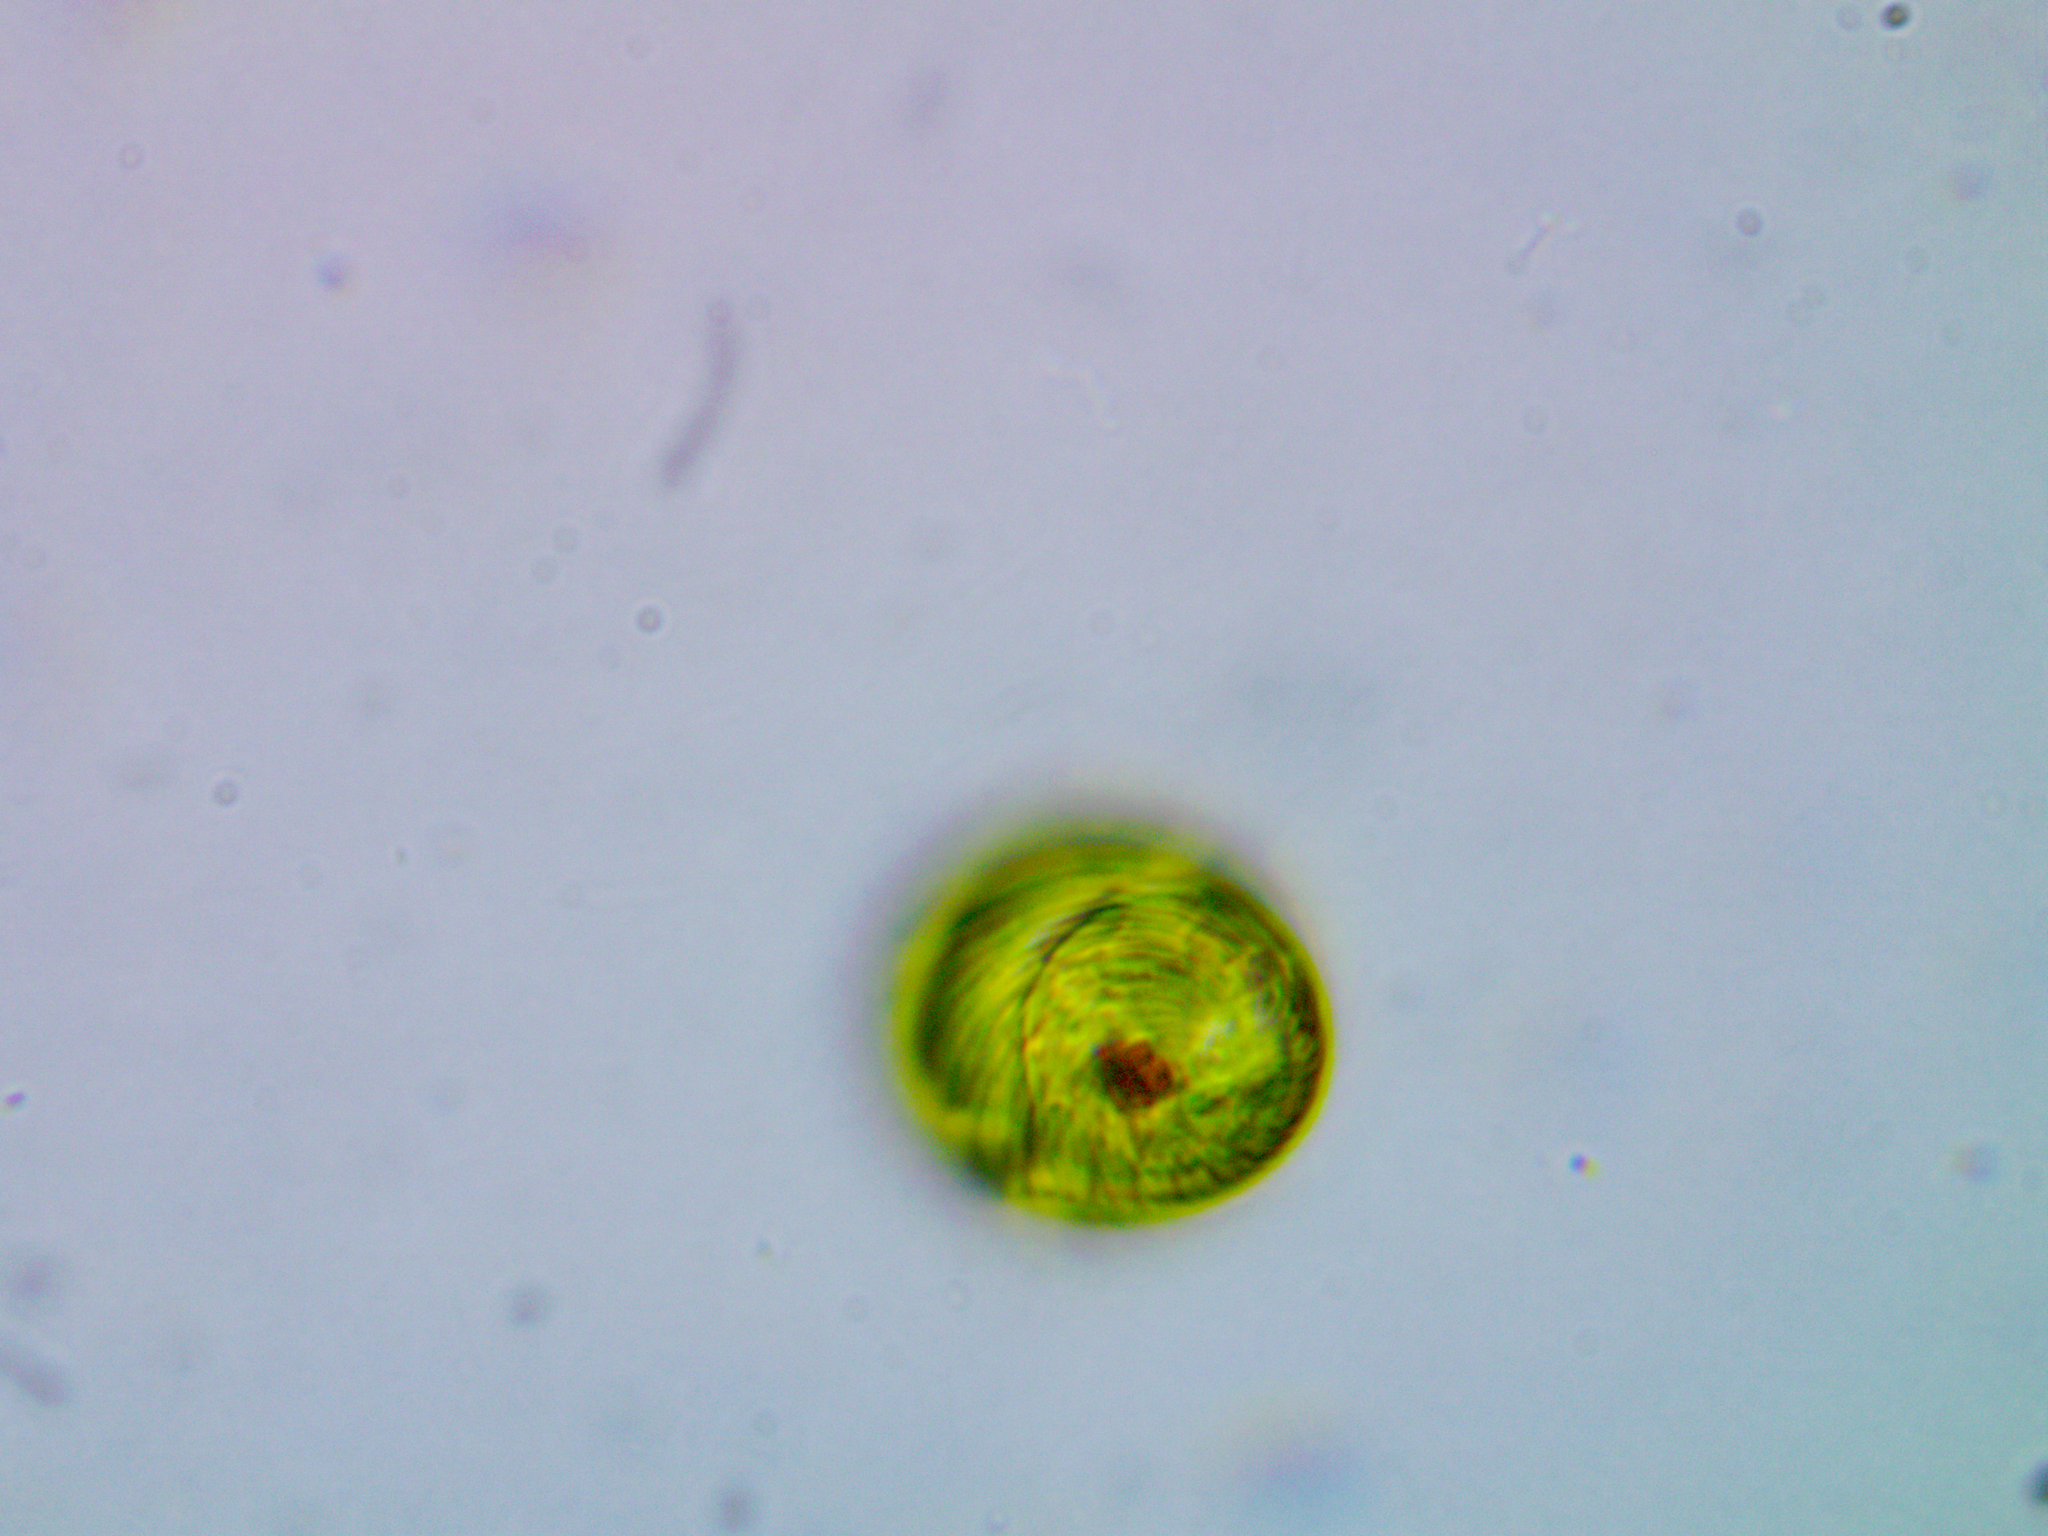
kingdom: Protozoa
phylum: Euglenozoa
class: Euglenoidea
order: Euglenida
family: Phacidae
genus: Lepocinclis
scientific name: Lepocinclis ovum
